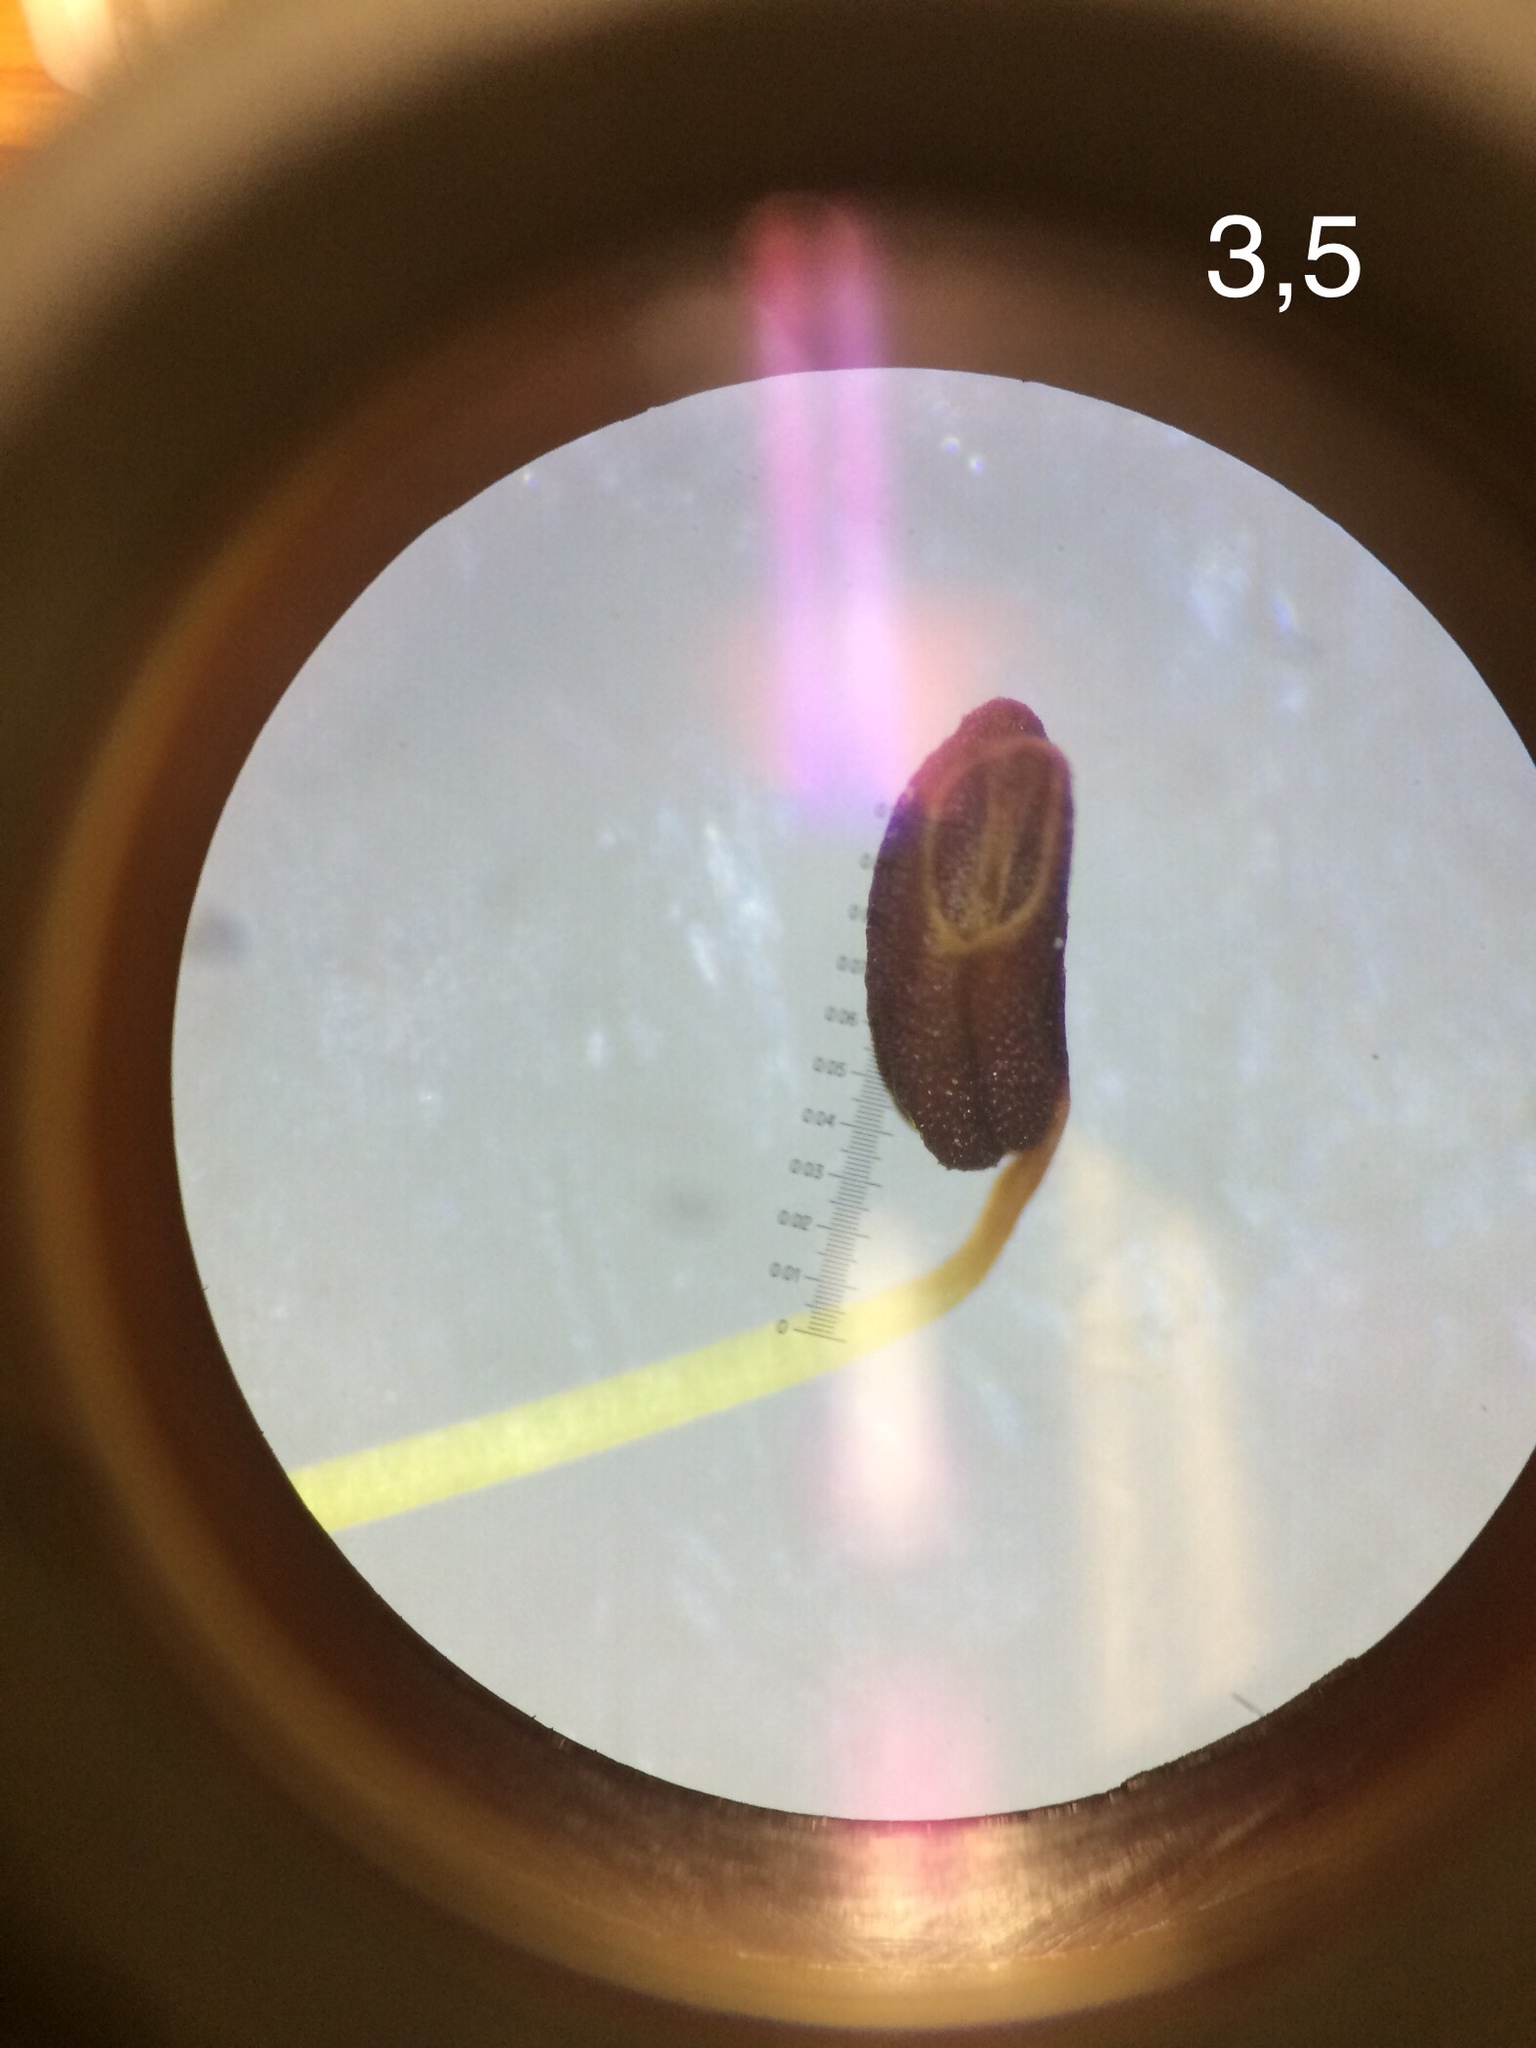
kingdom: Plantae
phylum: Tracheophyta
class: Magnoliopsida
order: Ericales
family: Ericaceae
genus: Erica
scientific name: Erica pinea
